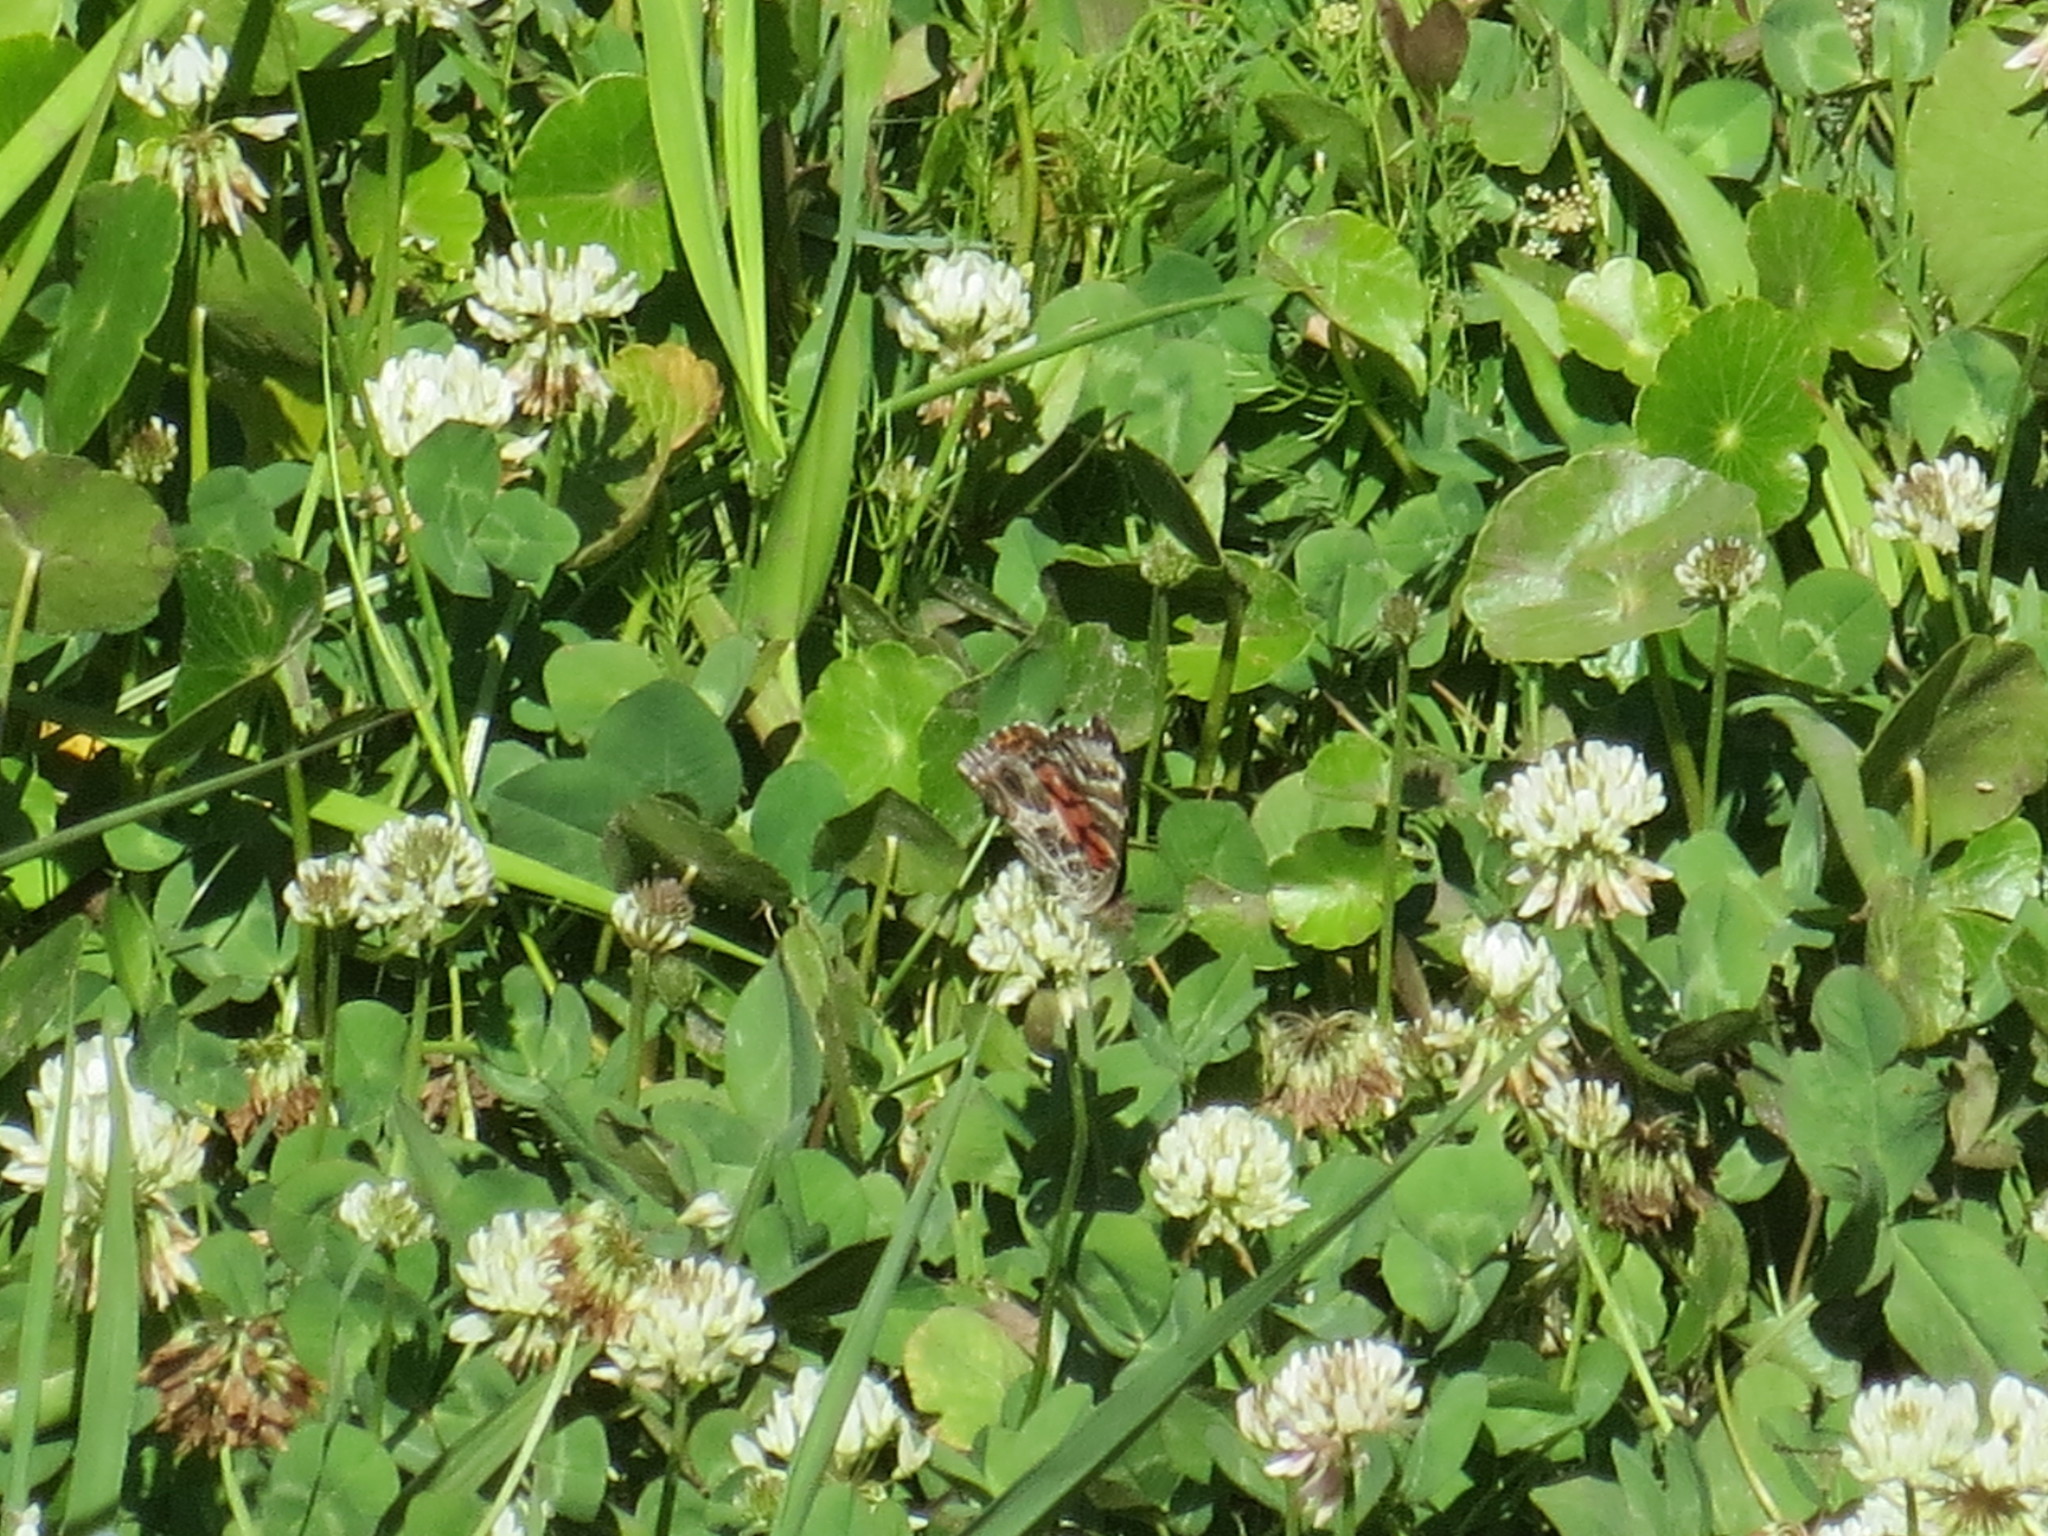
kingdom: Animalia
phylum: Arthropoda
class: Insecta
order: Lepidoptera
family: Nymphalidae
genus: Vanessa
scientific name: Vanessa virginiensis
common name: American lady
